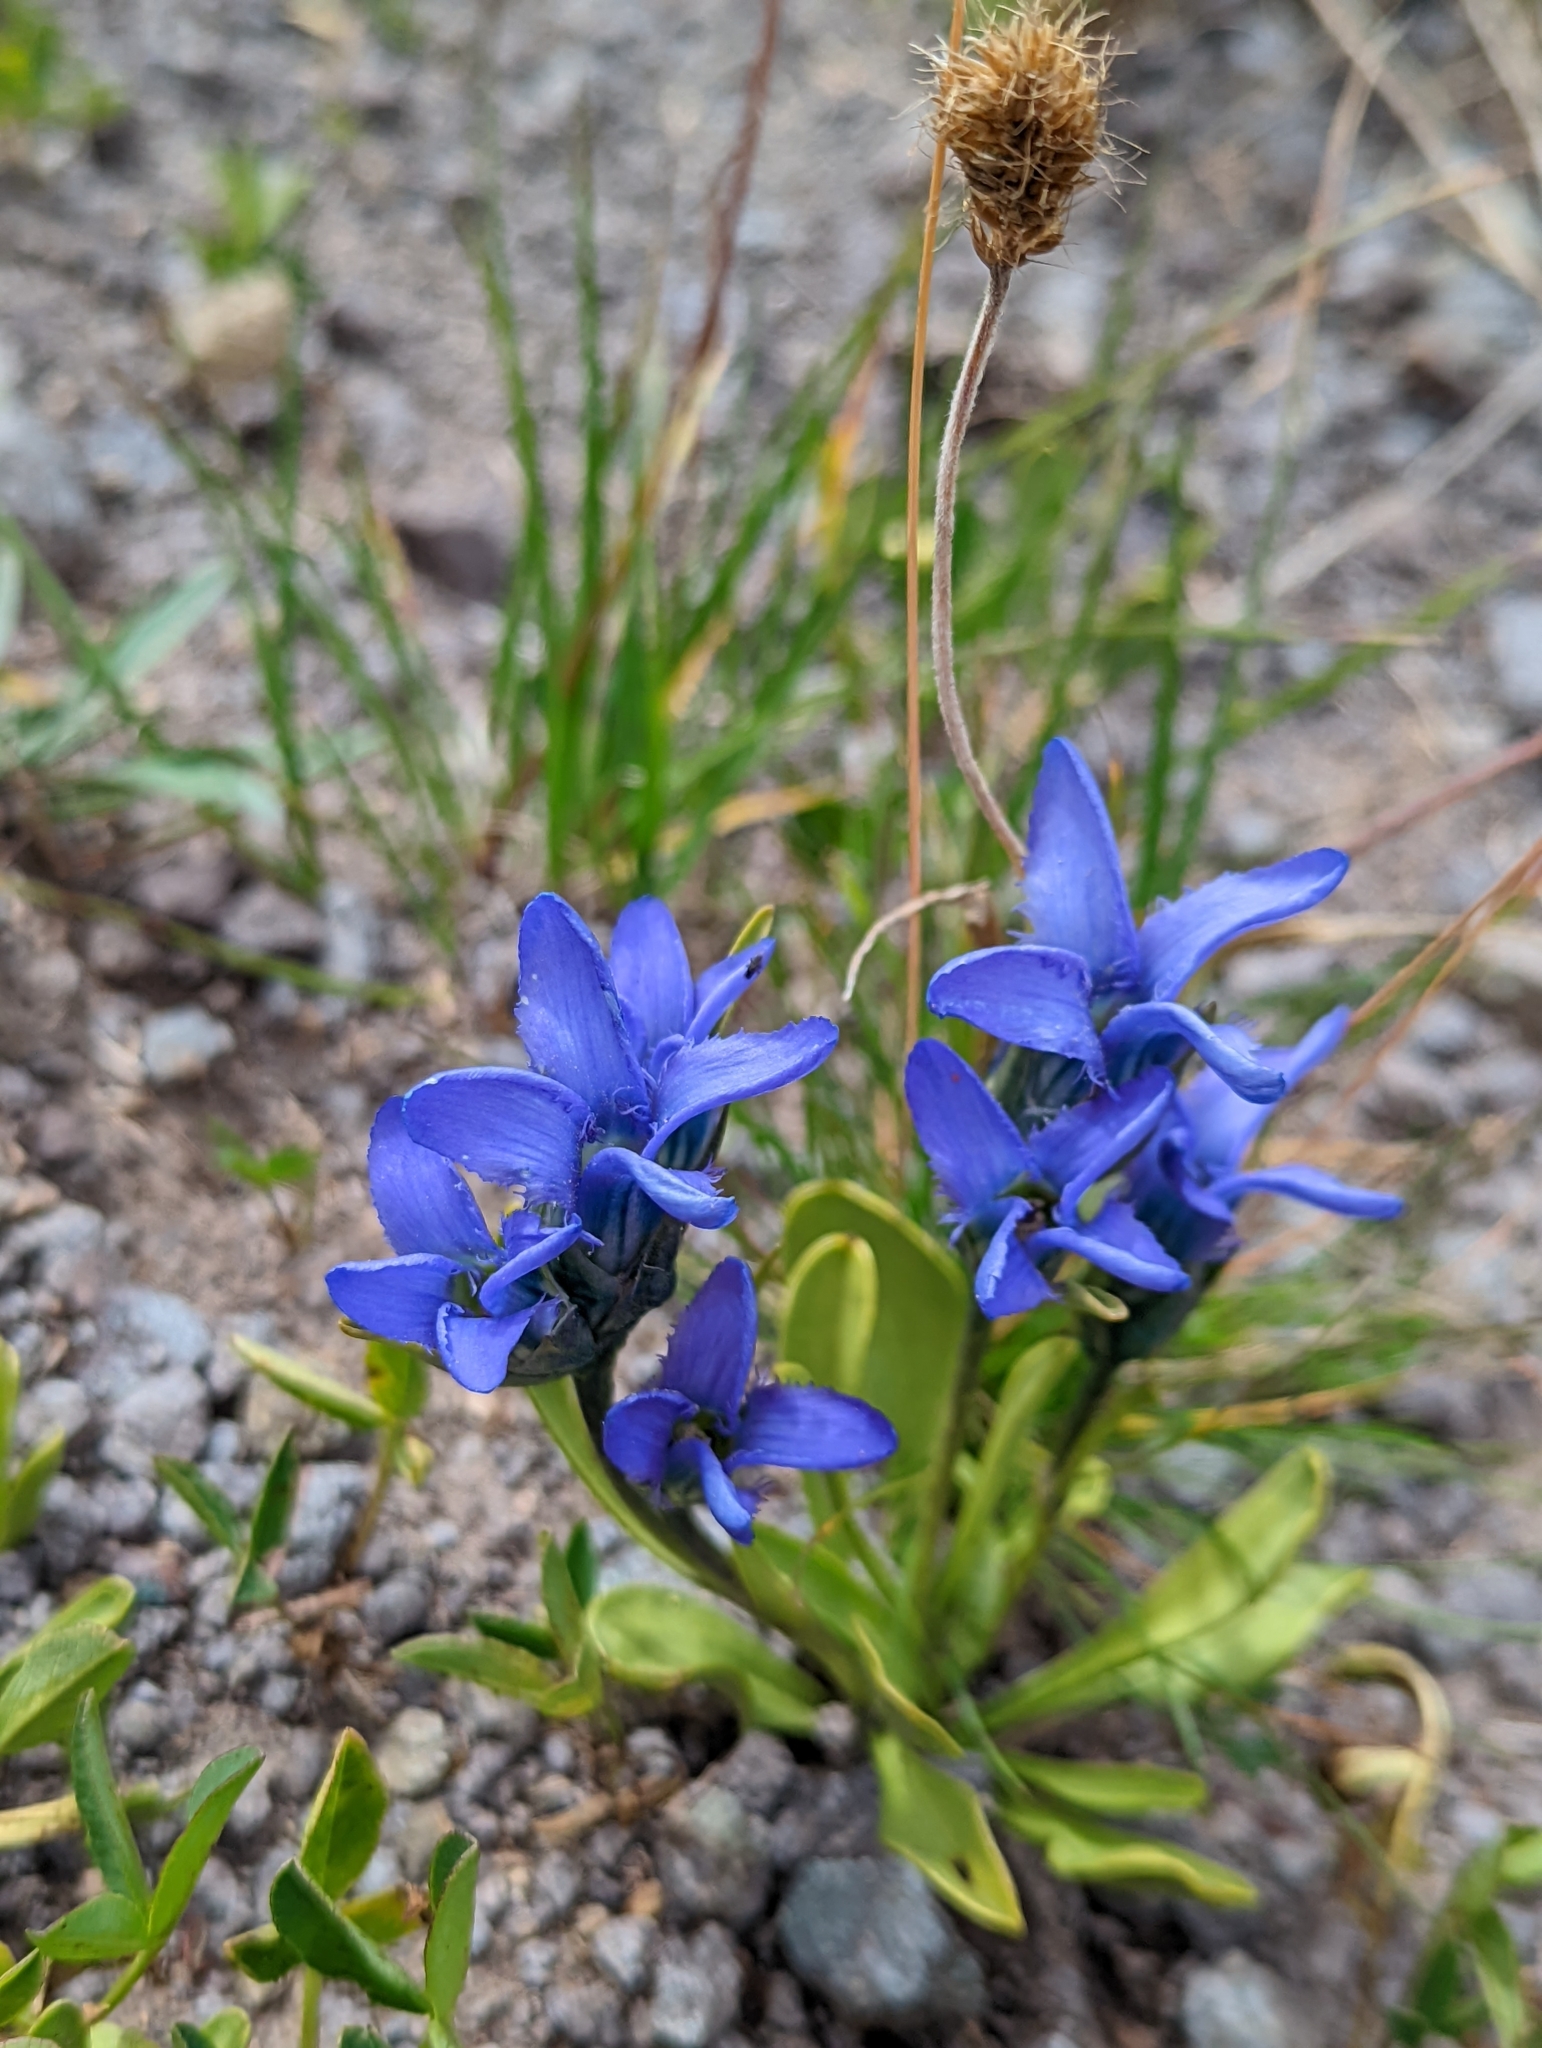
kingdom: Plantae
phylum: Tracheophyta
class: Magnoliopsida
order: Gentianales
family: Gentianaceae
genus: Gentianopsis
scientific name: Gentianopsis barbellata
